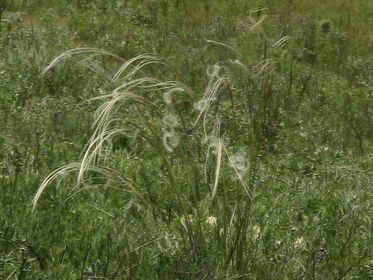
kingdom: Plantae
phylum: Tracheophyta
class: Liliopsida
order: Poales
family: Poaceae
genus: Stipa
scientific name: Stipa pennata
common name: European feather grass
